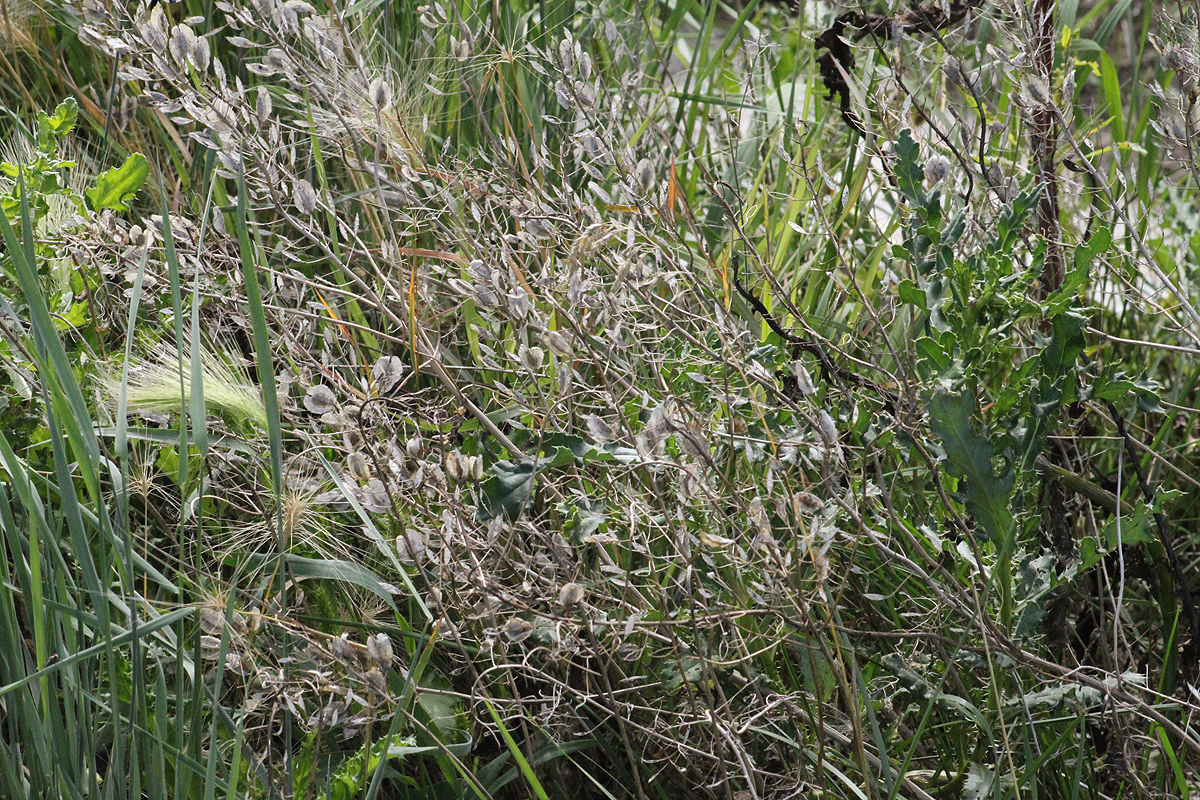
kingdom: Plantae
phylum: Tracheophyta
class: Magnoliopsida
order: Brassicales
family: Brassicaceae
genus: Thlaspi
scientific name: Thlaspi arvense
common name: Field pennycress
